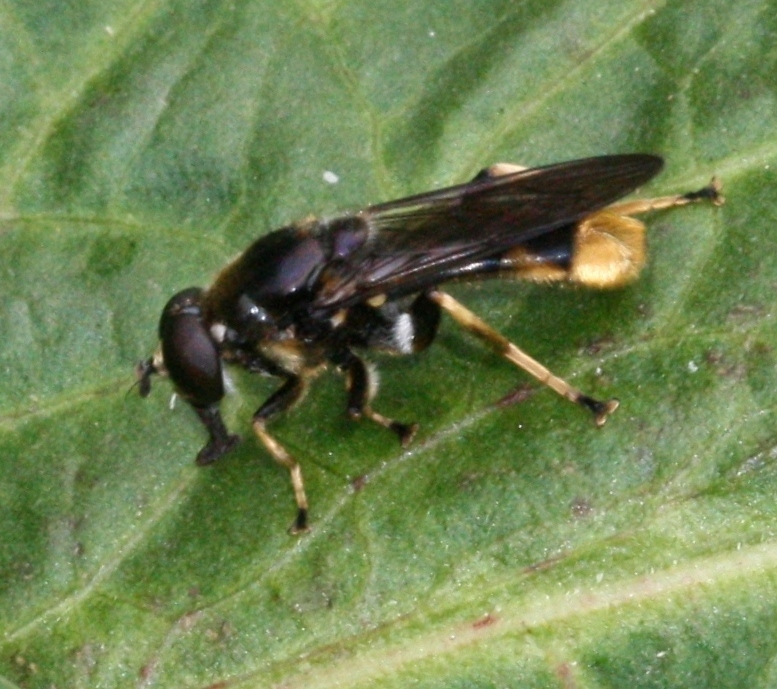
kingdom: Animalia
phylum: Arthropoda
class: Insecta
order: Diptera
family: Syrphidae
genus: Xylota
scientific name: Xylota sylvarum
